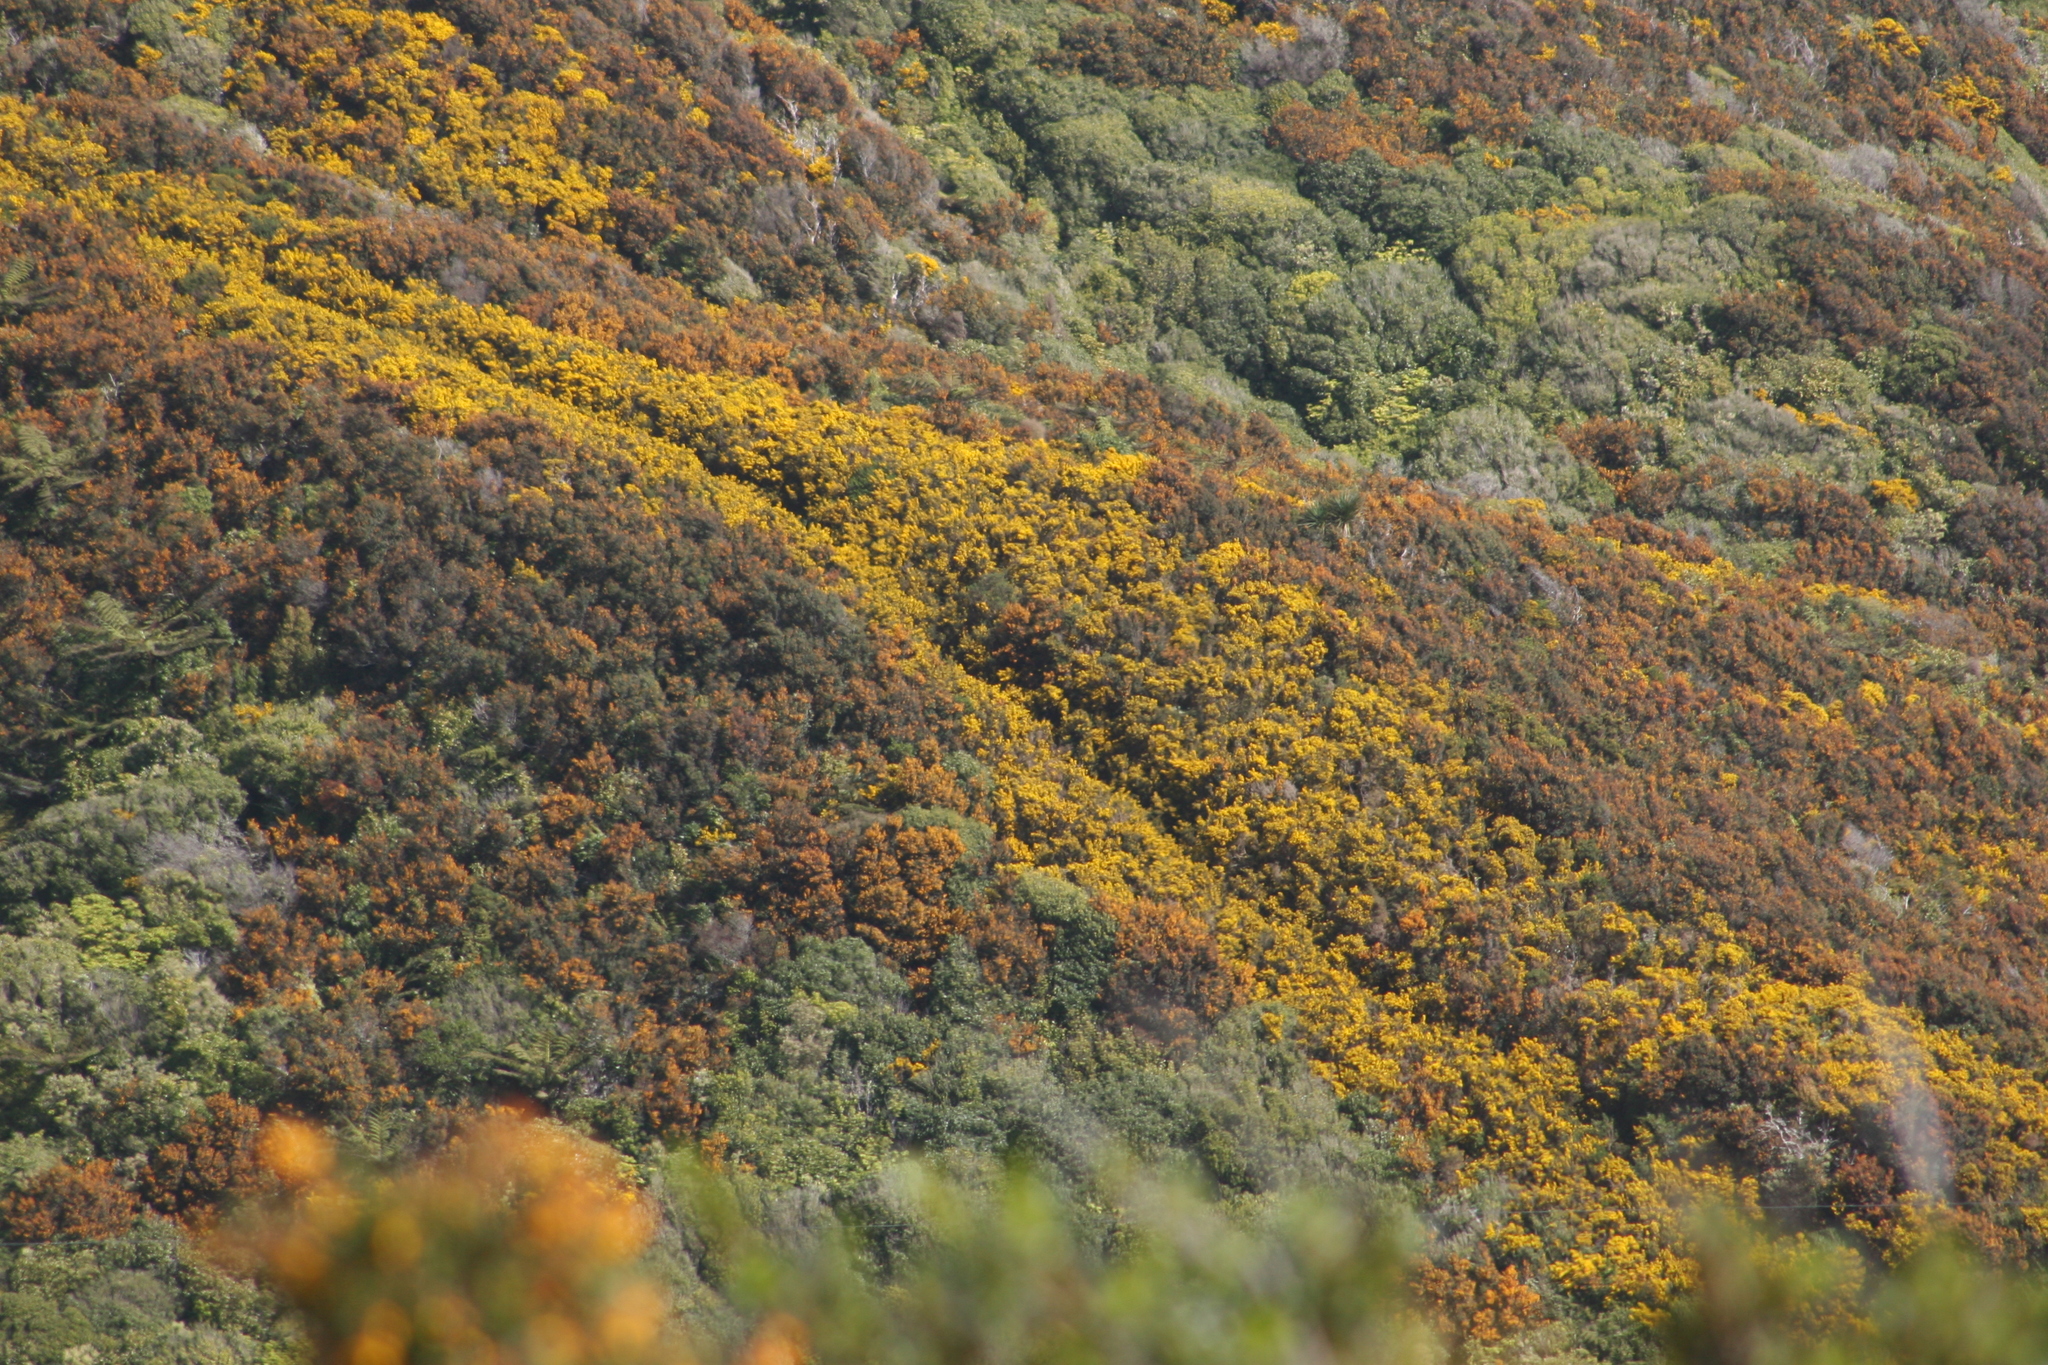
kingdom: Plantae
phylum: Tracheophyta
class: Magnoliopsida
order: Fabales
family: Fabaceae
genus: Ulex
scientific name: Ulex europaeus
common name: Common gorse
